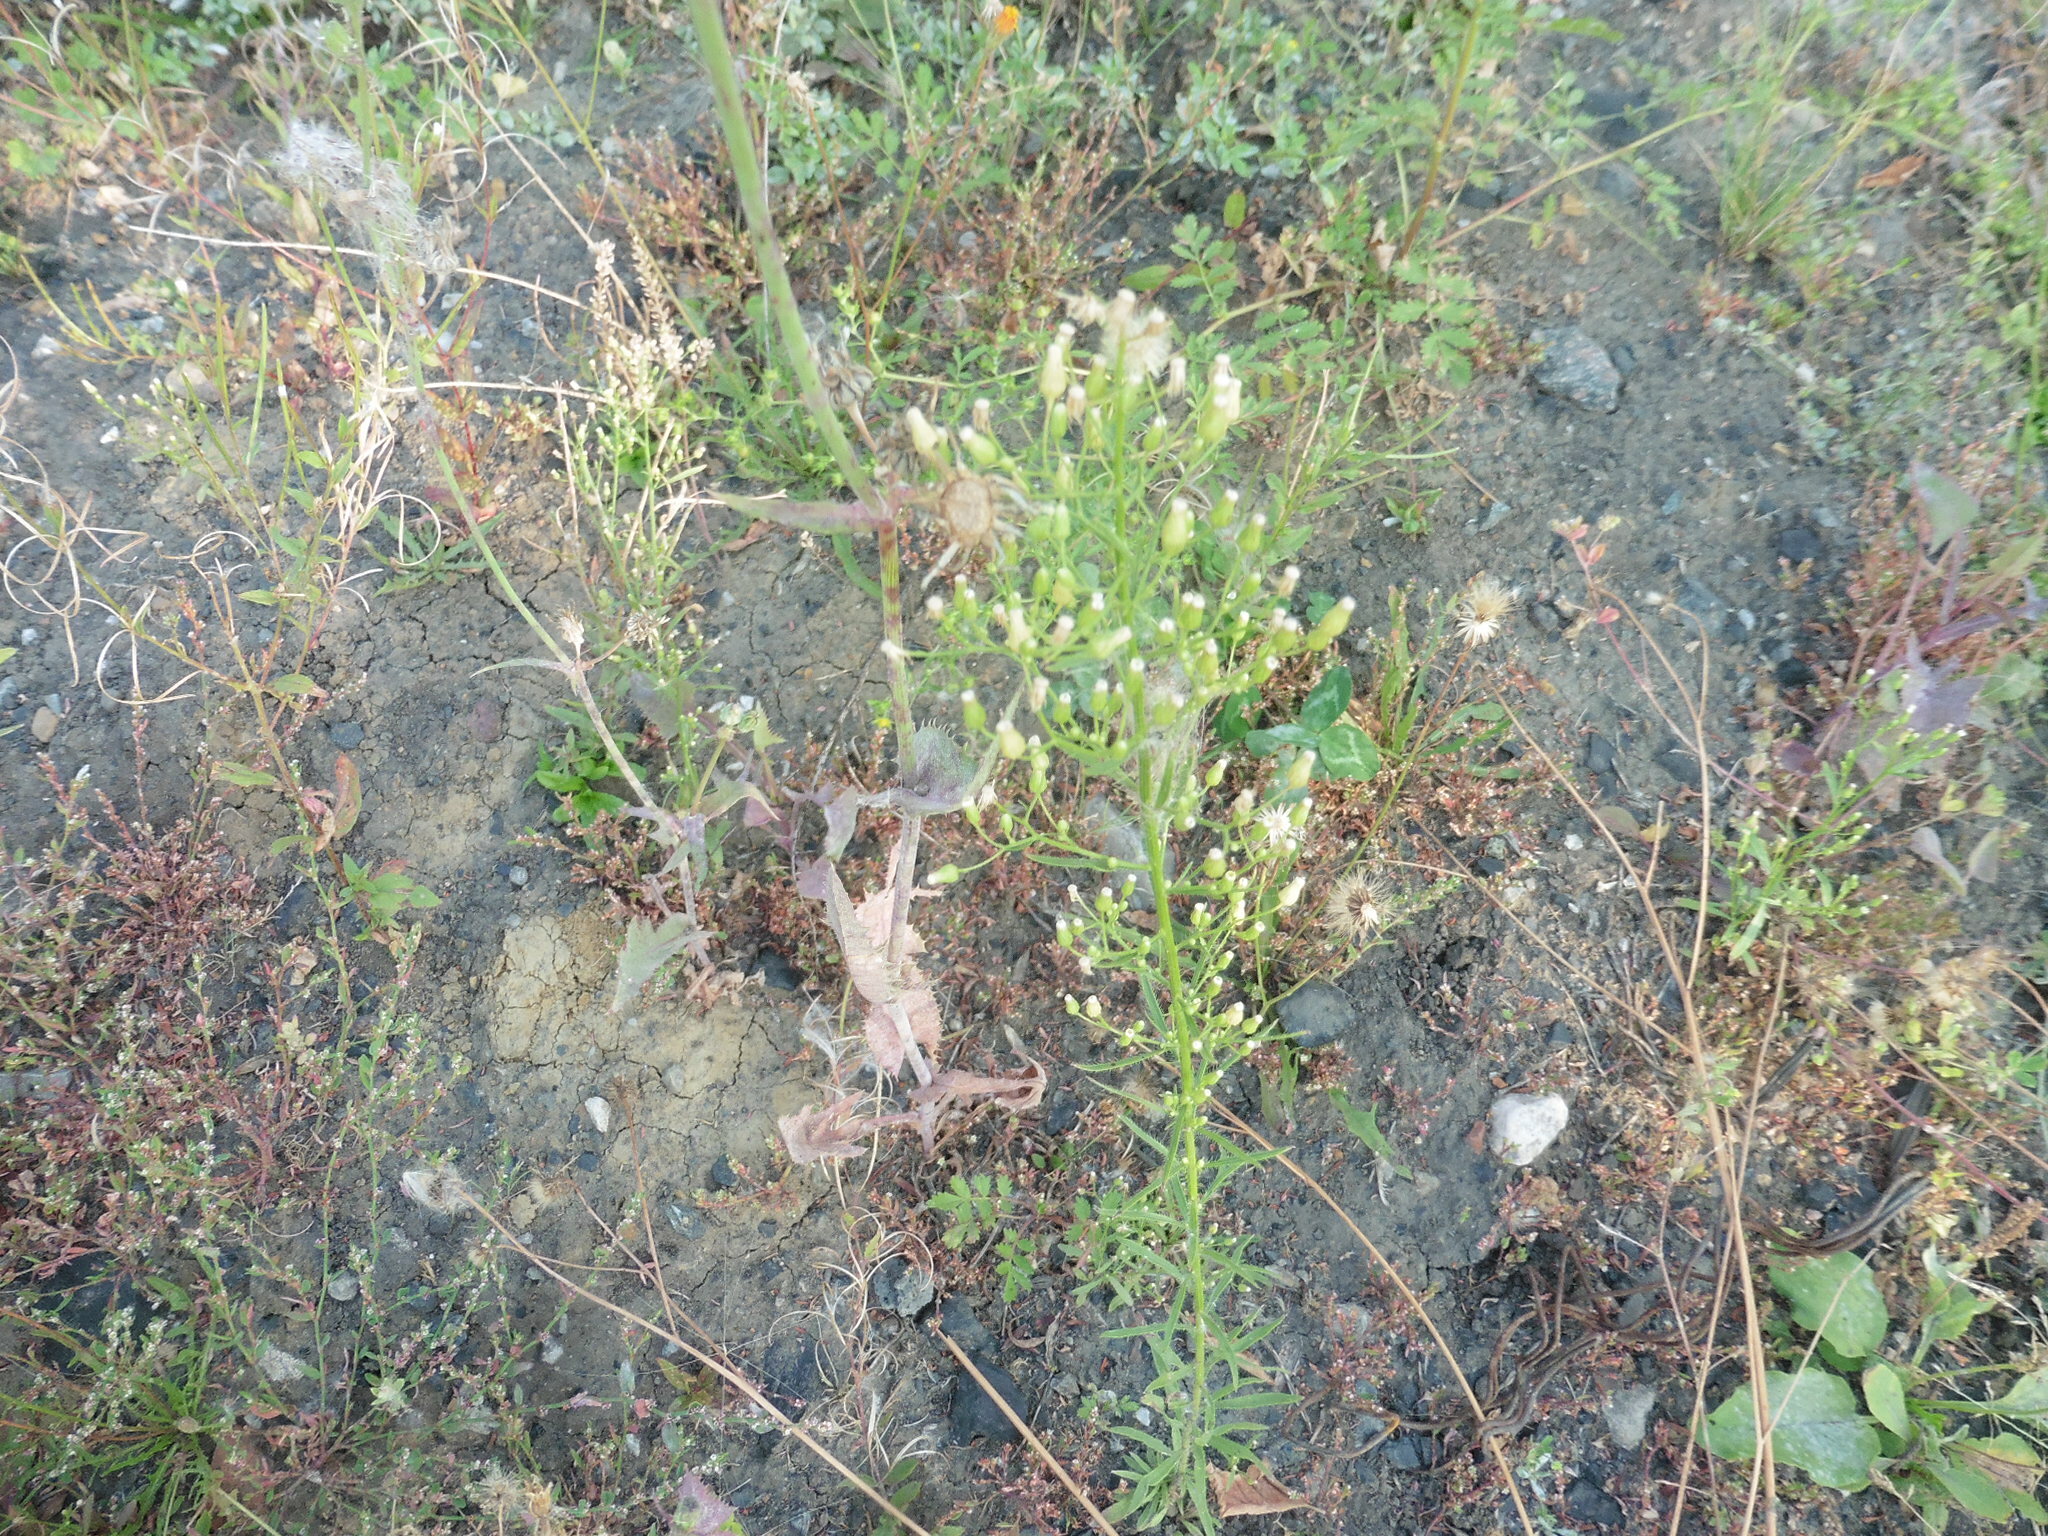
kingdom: Plantae
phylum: Tracheophyta
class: Magnoliopsida
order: Asterales
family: Asteraceae
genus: Erigeron
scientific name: Erigeron canadensis
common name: Canadian fleabane
